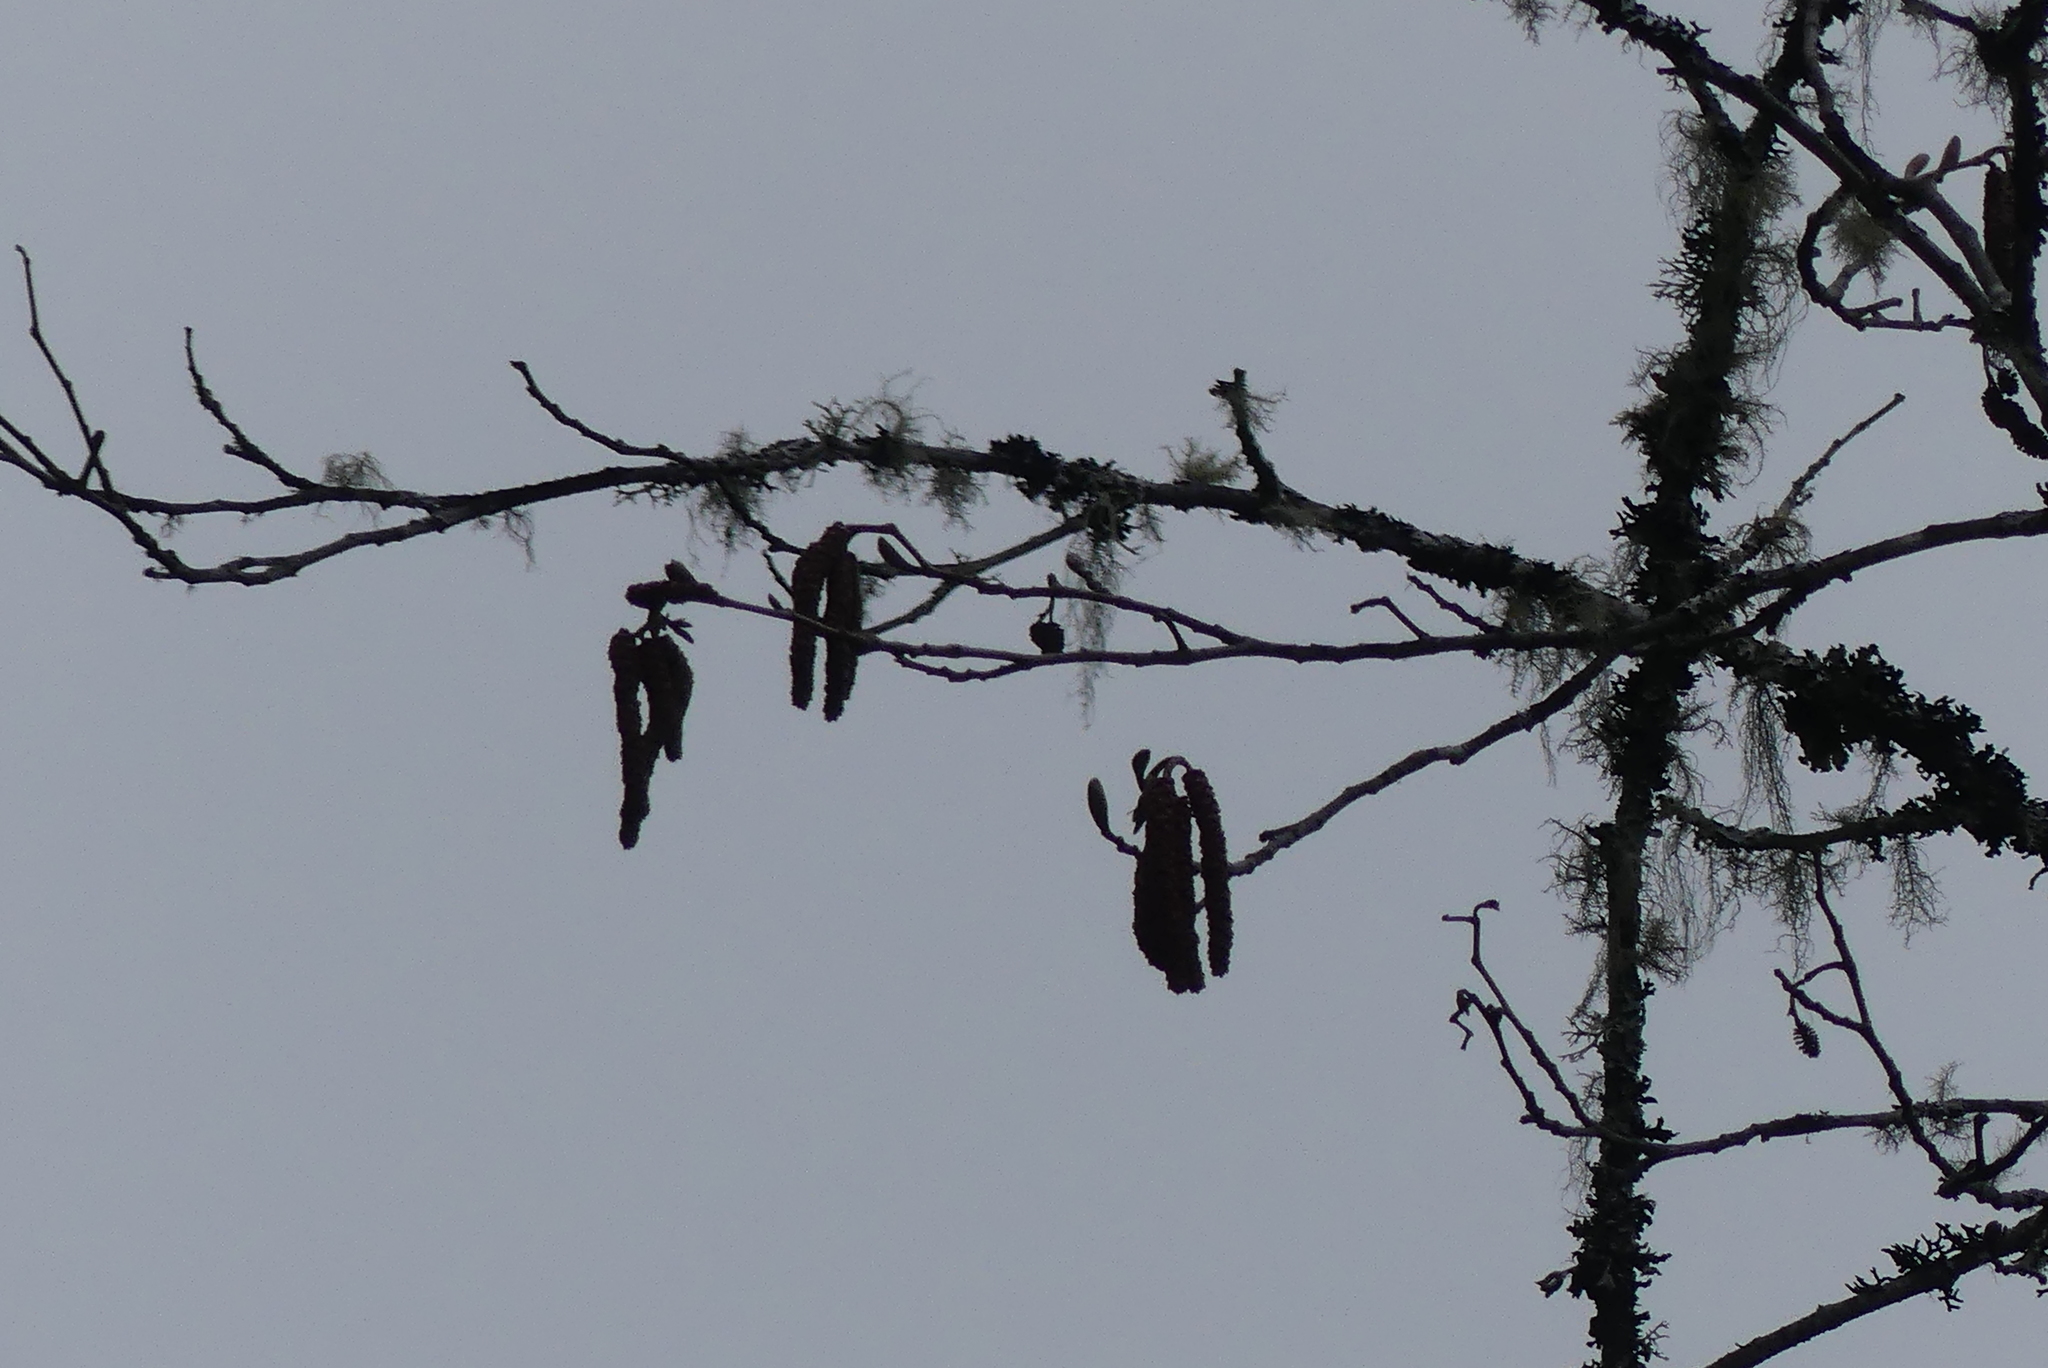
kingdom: Plantae
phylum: Tracheophyta
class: Magnoliopsida
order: Fagales
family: Betulaceae
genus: Alnus
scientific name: Alnus rubra
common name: Red alder
